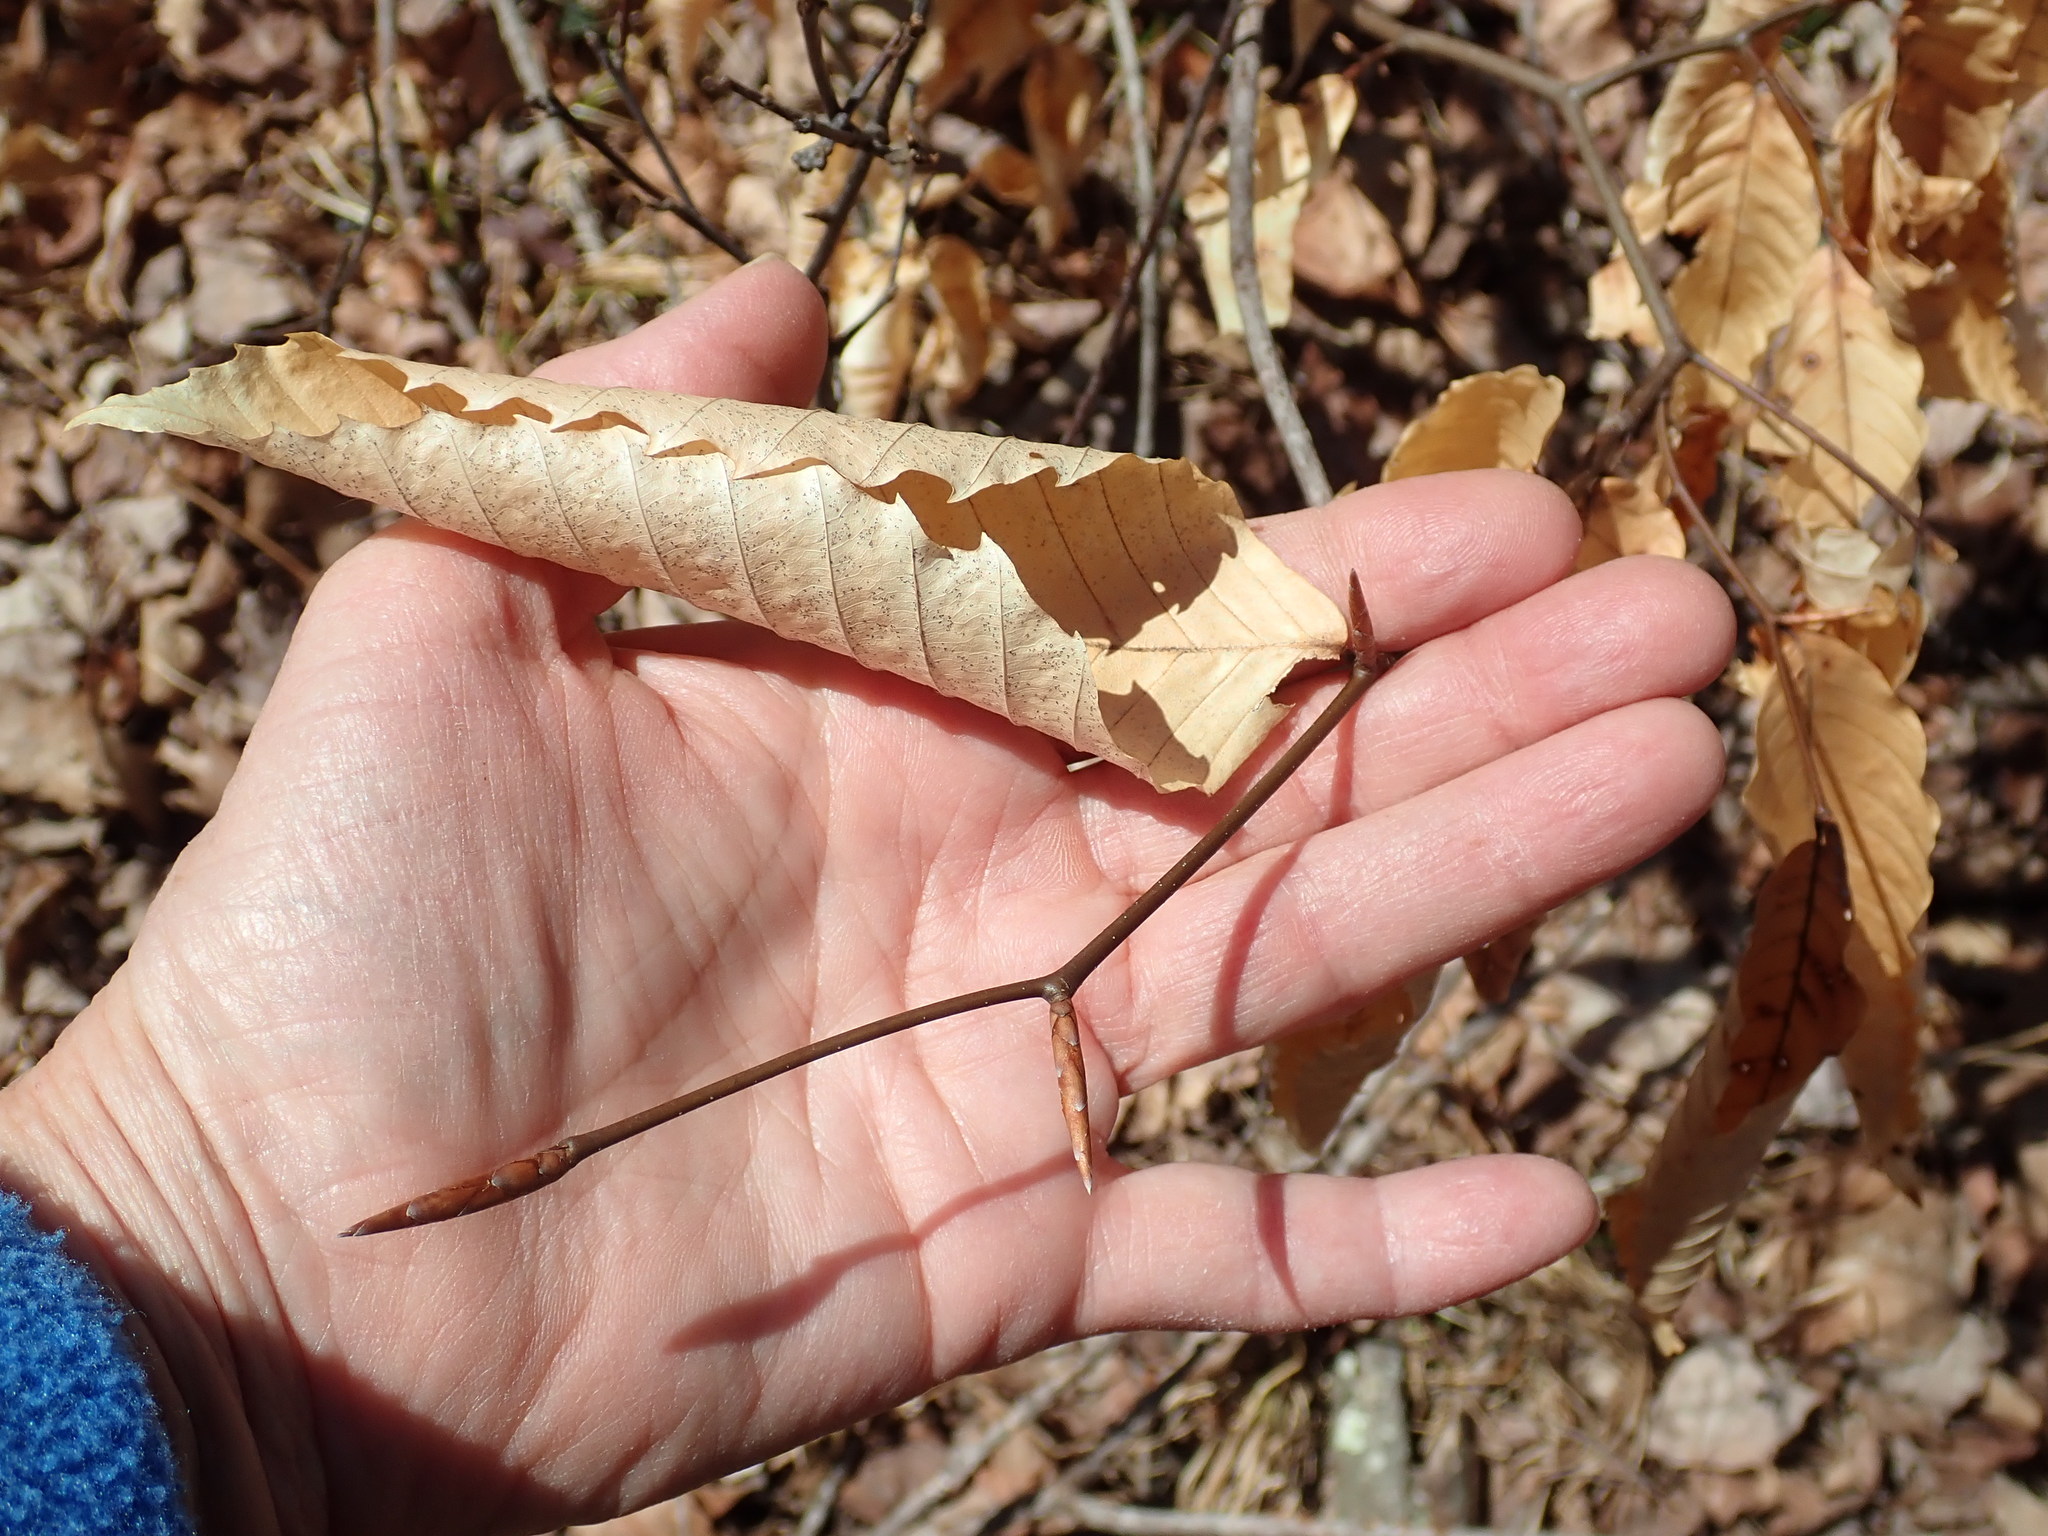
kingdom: Plantae
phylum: Tracheophyta
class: Magnoliopsida
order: Fagales
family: Fagaceae
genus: Fagus
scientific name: Fagus grandifolia
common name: American beech
